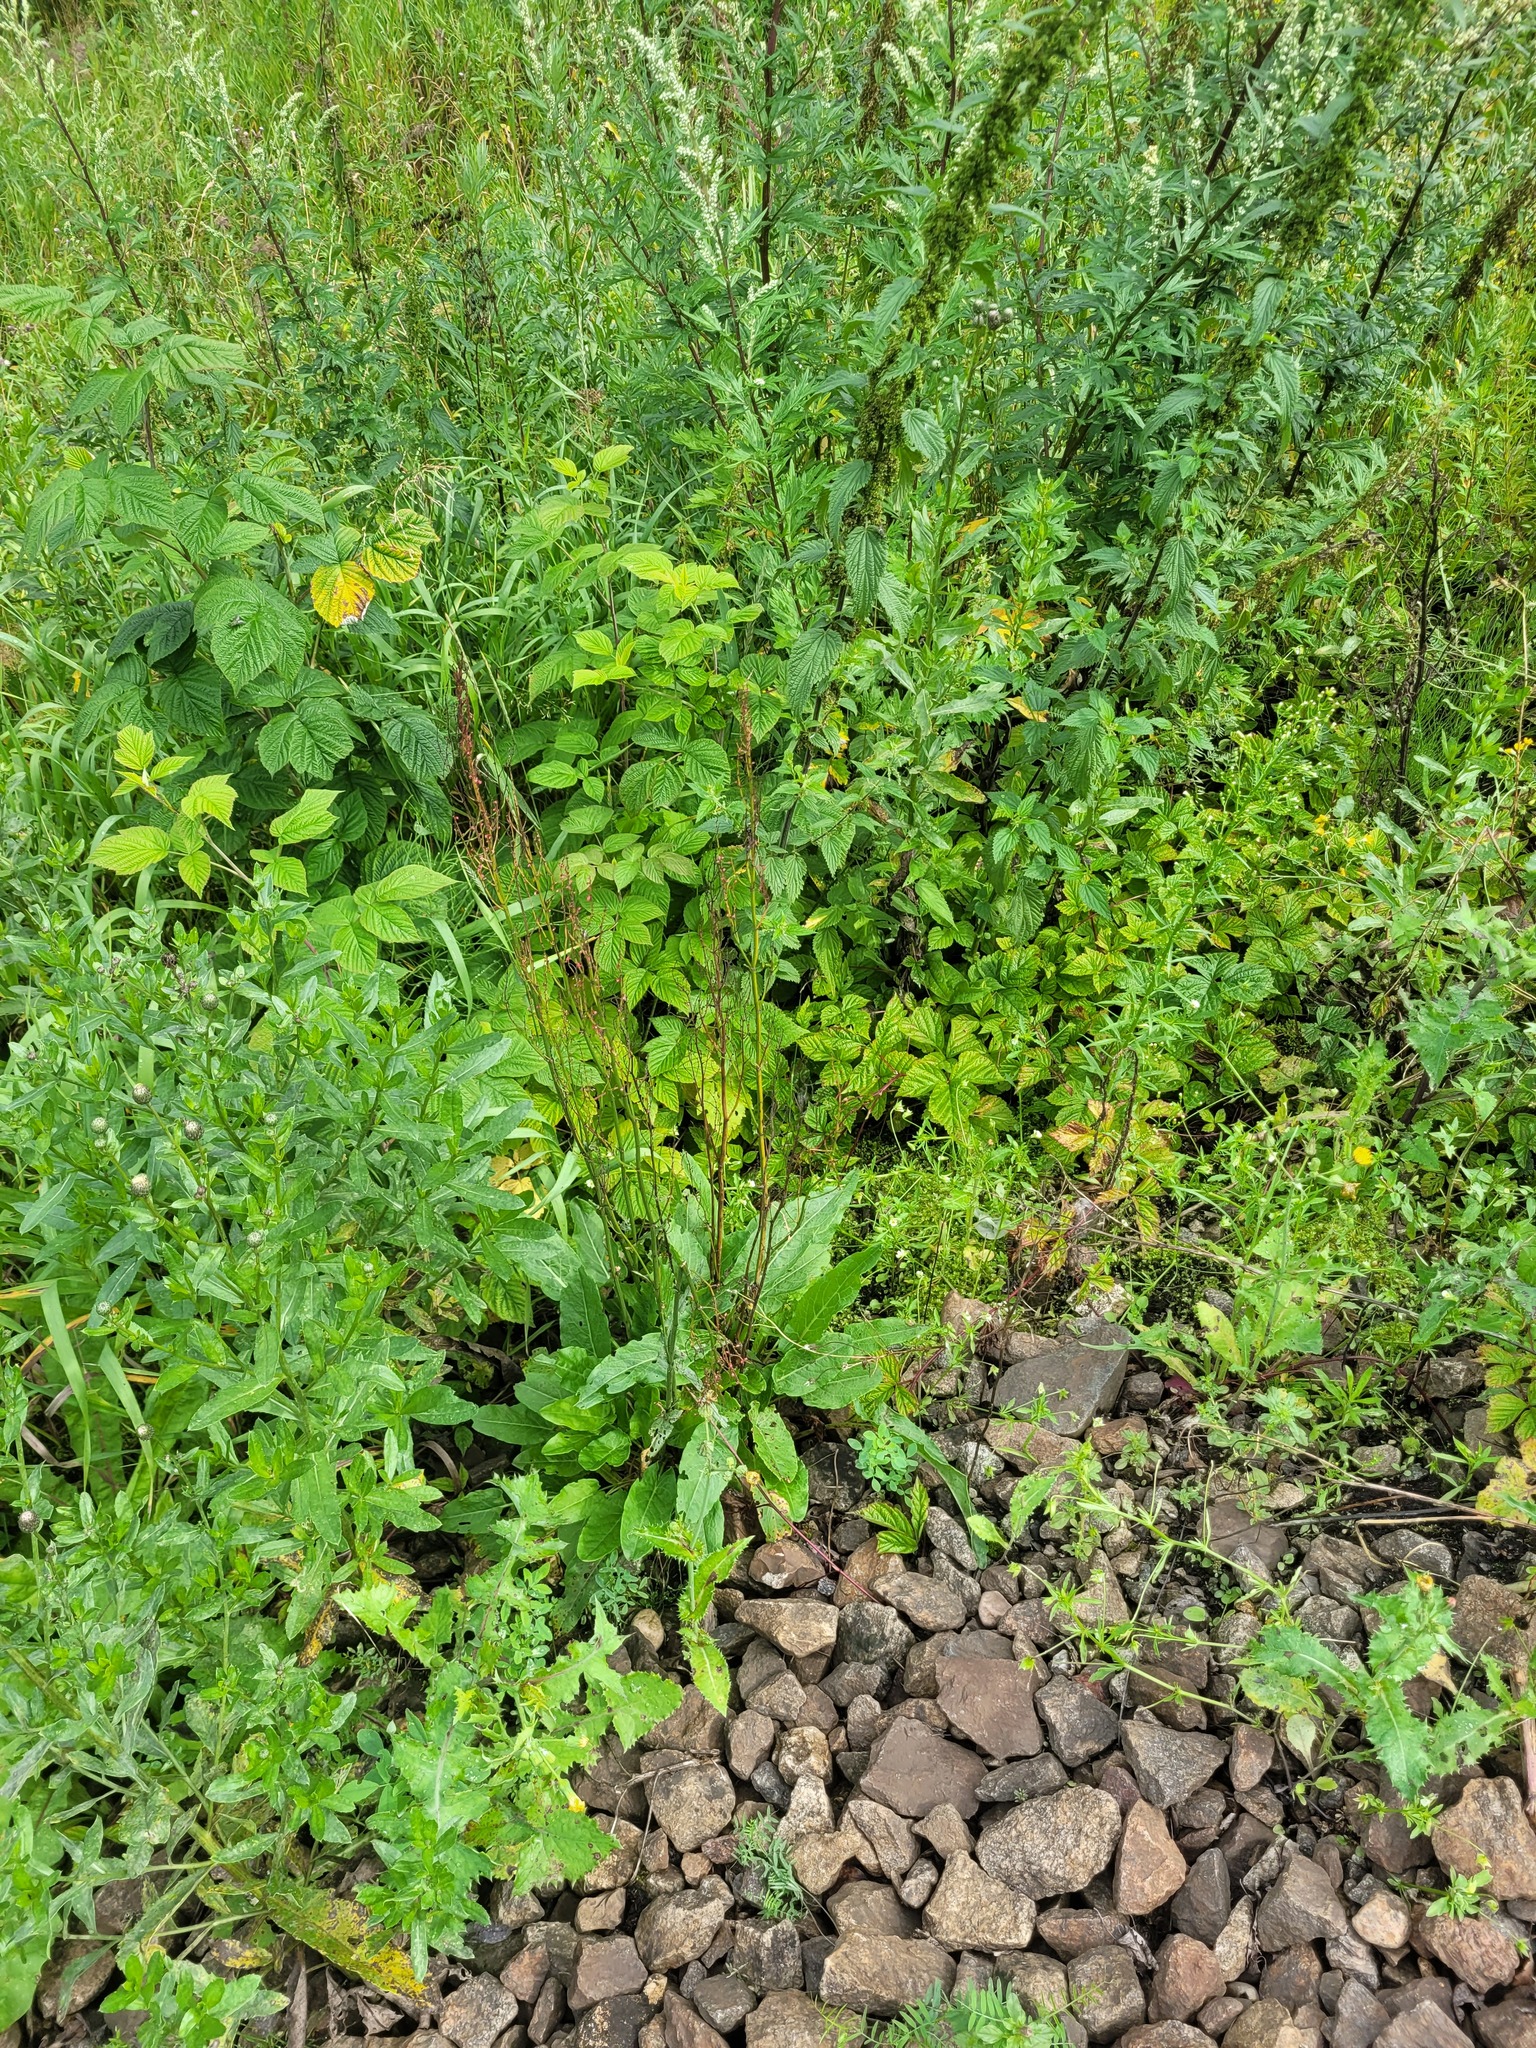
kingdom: Plantae
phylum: Tracheophyta
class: Magnoliopsida
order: Caryophyllales
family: Polygonaceae
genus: Rumex
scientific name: Rumex thyrsiflorus
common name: Garden sorrel
